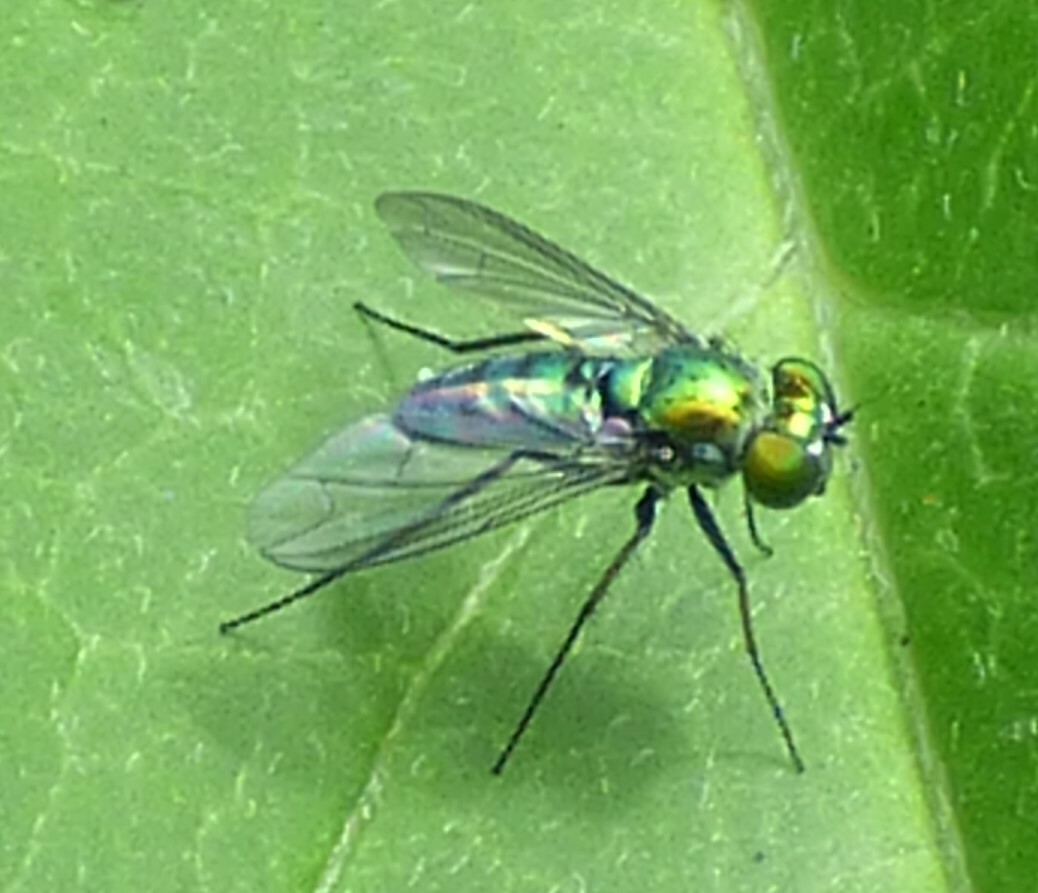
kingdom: Animalia
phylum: Arthropoda
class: Insecta
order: Diptera
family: Dolichopodidae
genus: Condylostylus
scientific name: Condylostylus longicornis
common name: Long-legged fly
